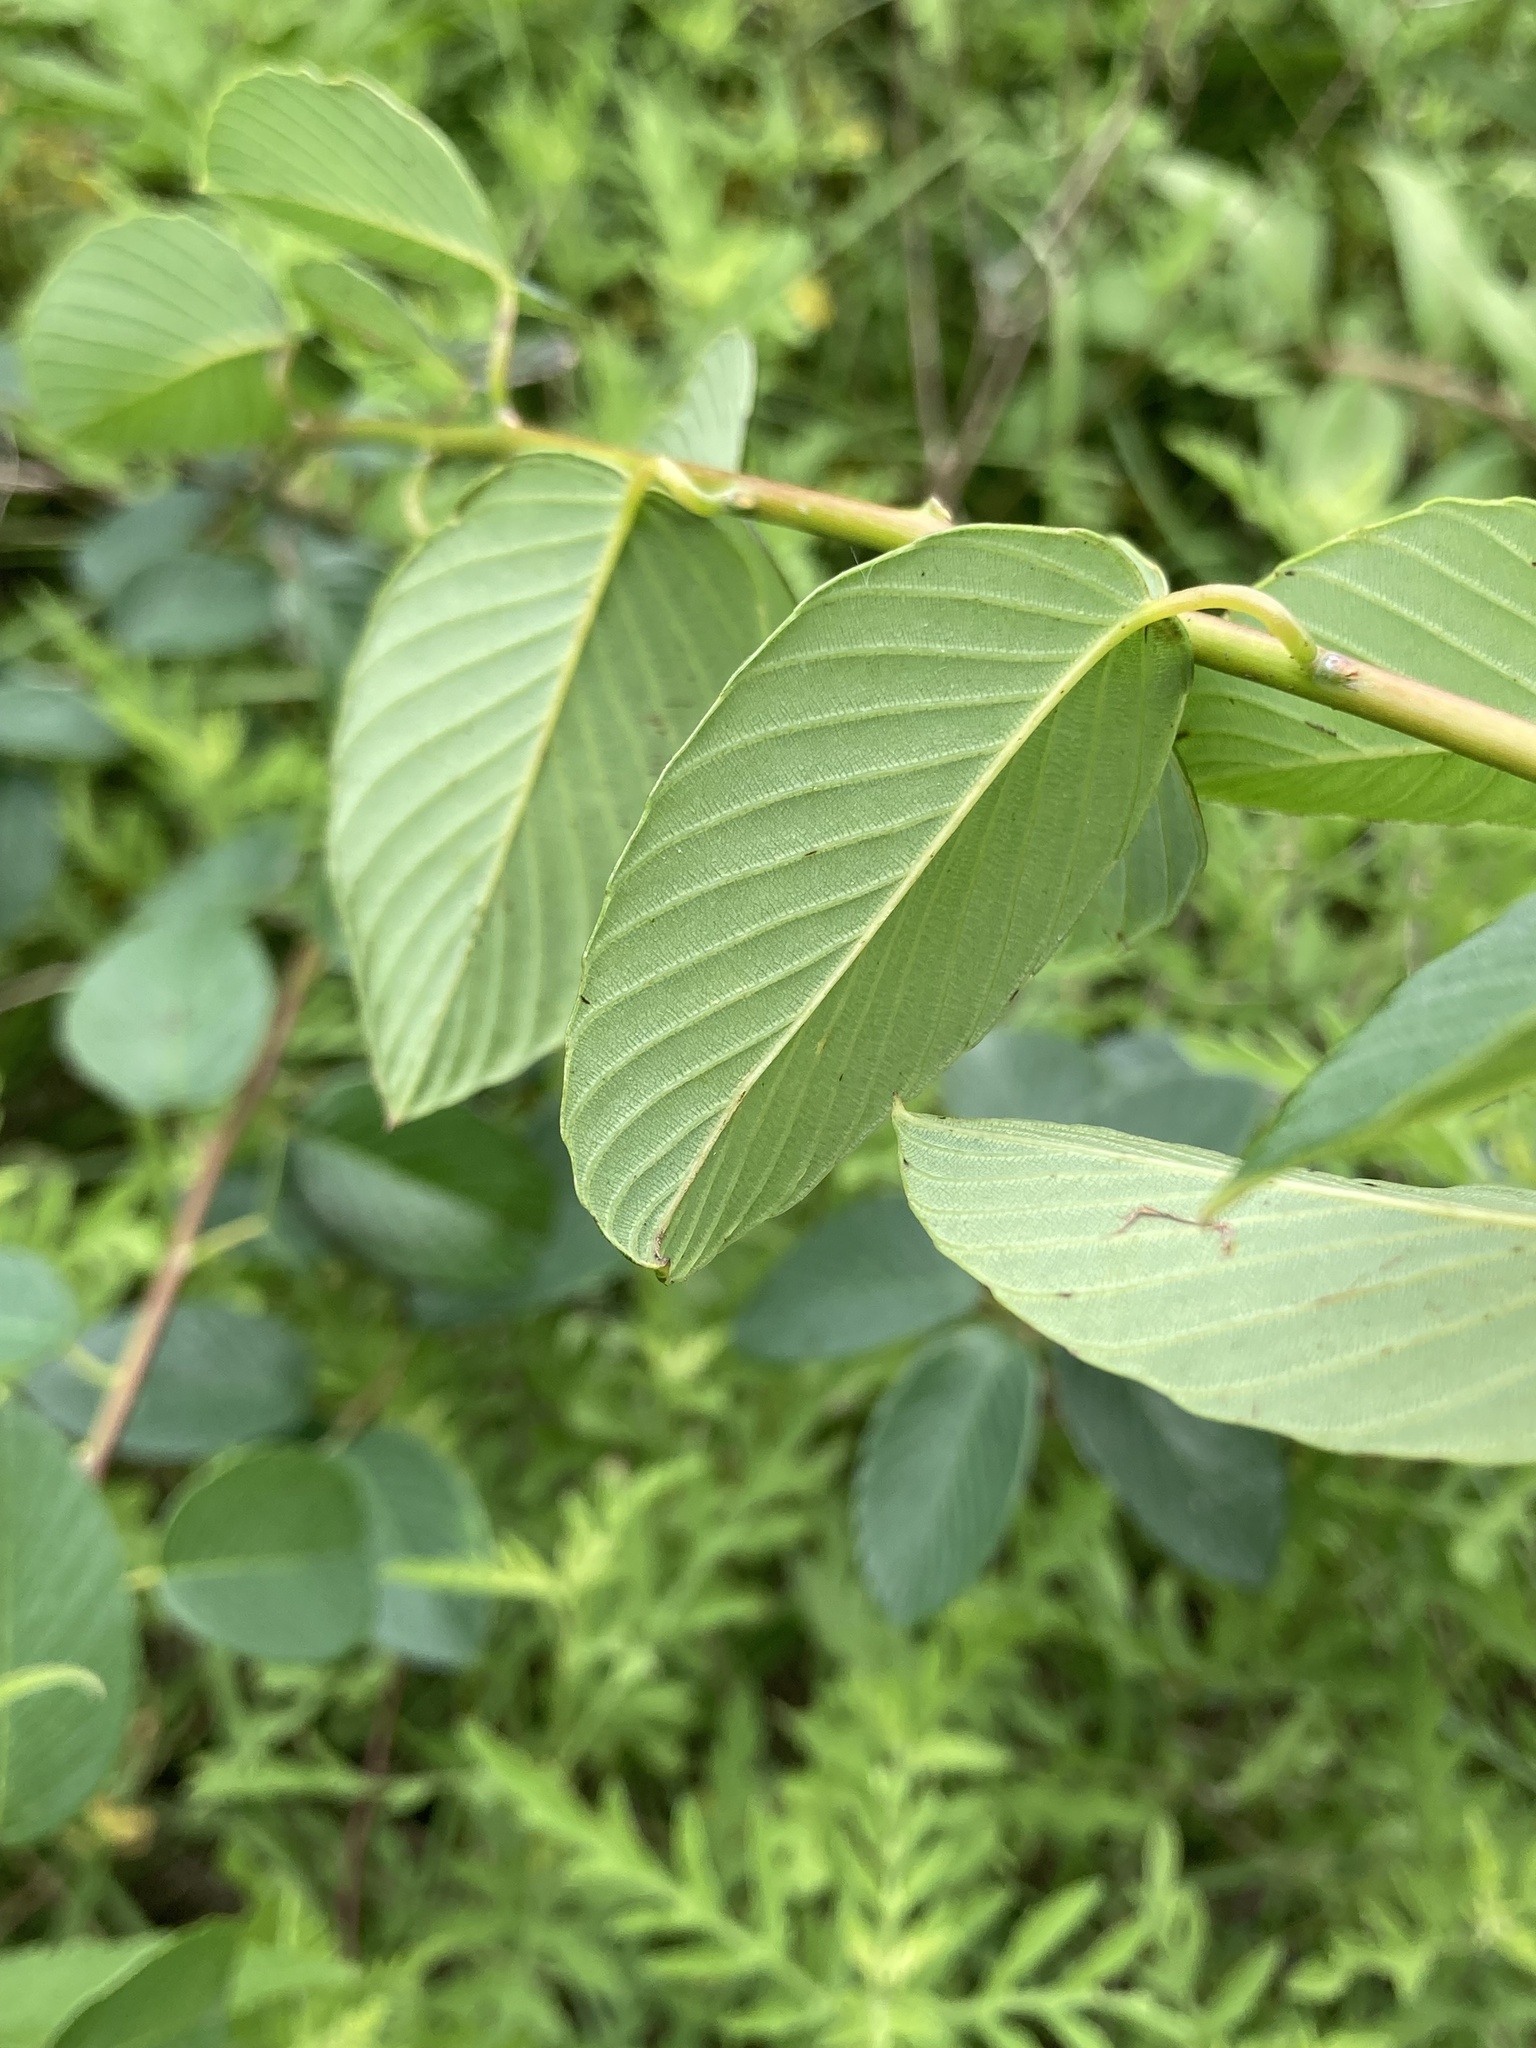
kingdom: Plantae
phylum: Tracheophyta
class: Magnoliopsida
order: Rosales
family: Rhamnaceae
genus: Berchemia
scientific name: Berchemia scandens
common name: Supplejack
